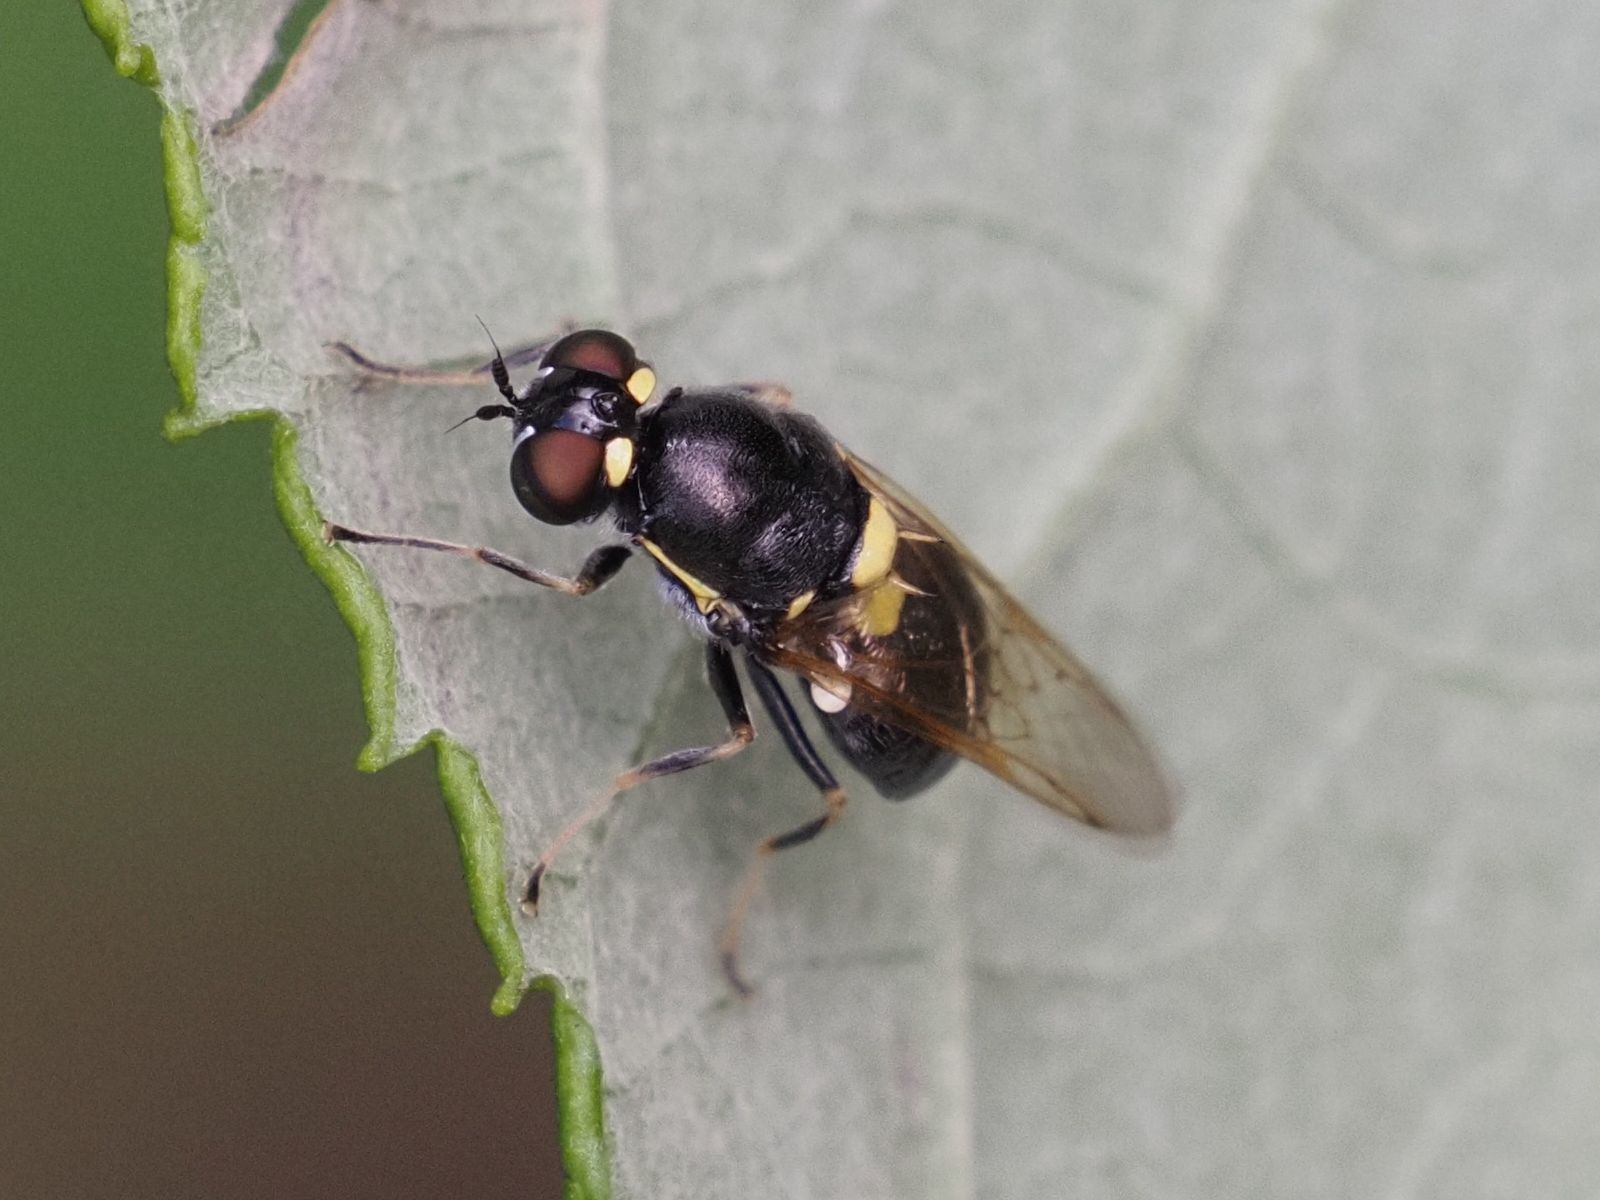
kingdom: Animalia
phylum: Arthropoda
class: Insecta
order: Diptera
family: Stratiomyidae
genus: Oxycera
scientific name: Oxycera leonina
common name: Twin-spotted major
